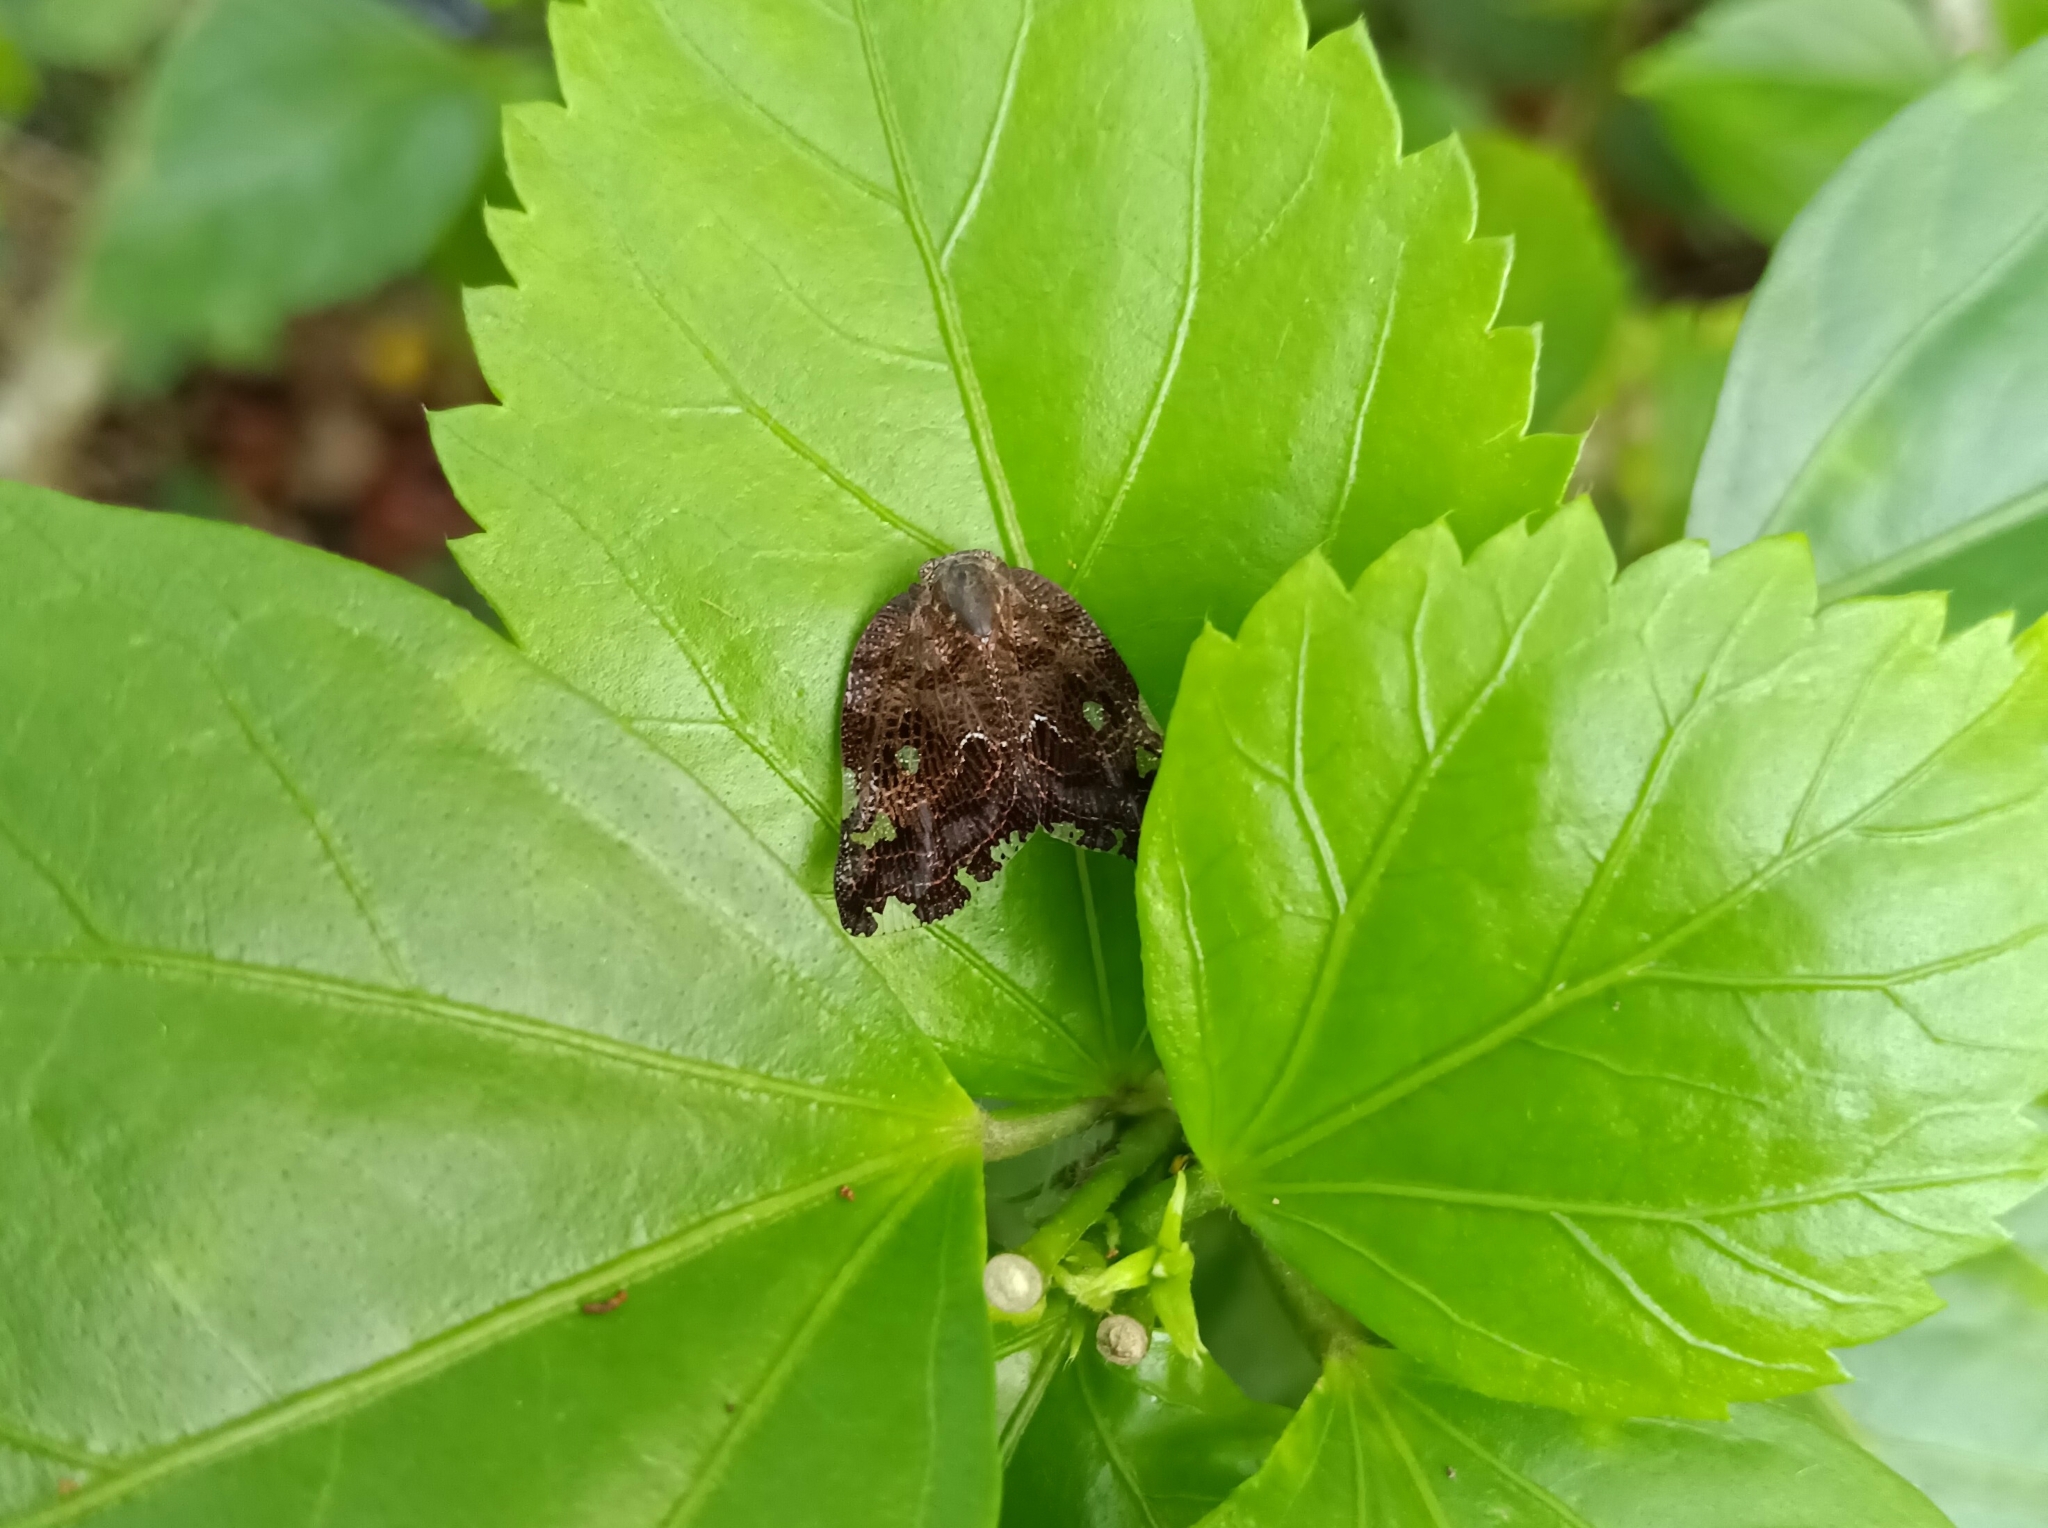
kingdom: Animalia
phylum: Arthropoda
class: Insecta
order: Hemiptera
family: Ricaniidae
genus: Ricania
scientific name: Ricania speculum
